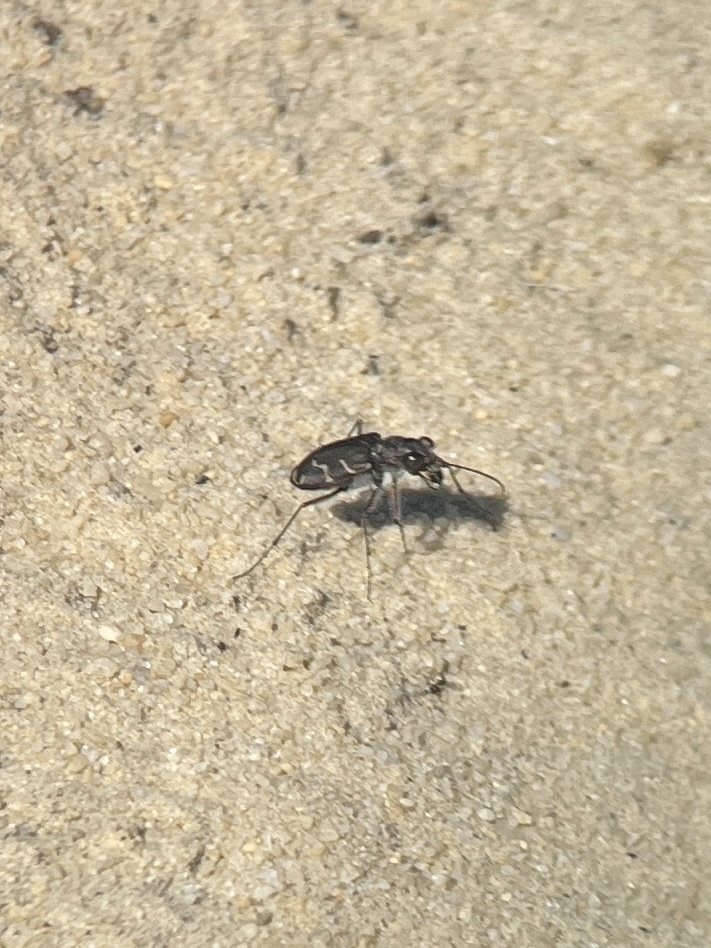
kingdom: Animalia
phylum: Arthropoda
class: Insecta
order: Coleoptera
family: Carabidae
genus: Cicindela
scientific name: Cicindela tranquebarica
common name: Oblique-lined tiger beetle
